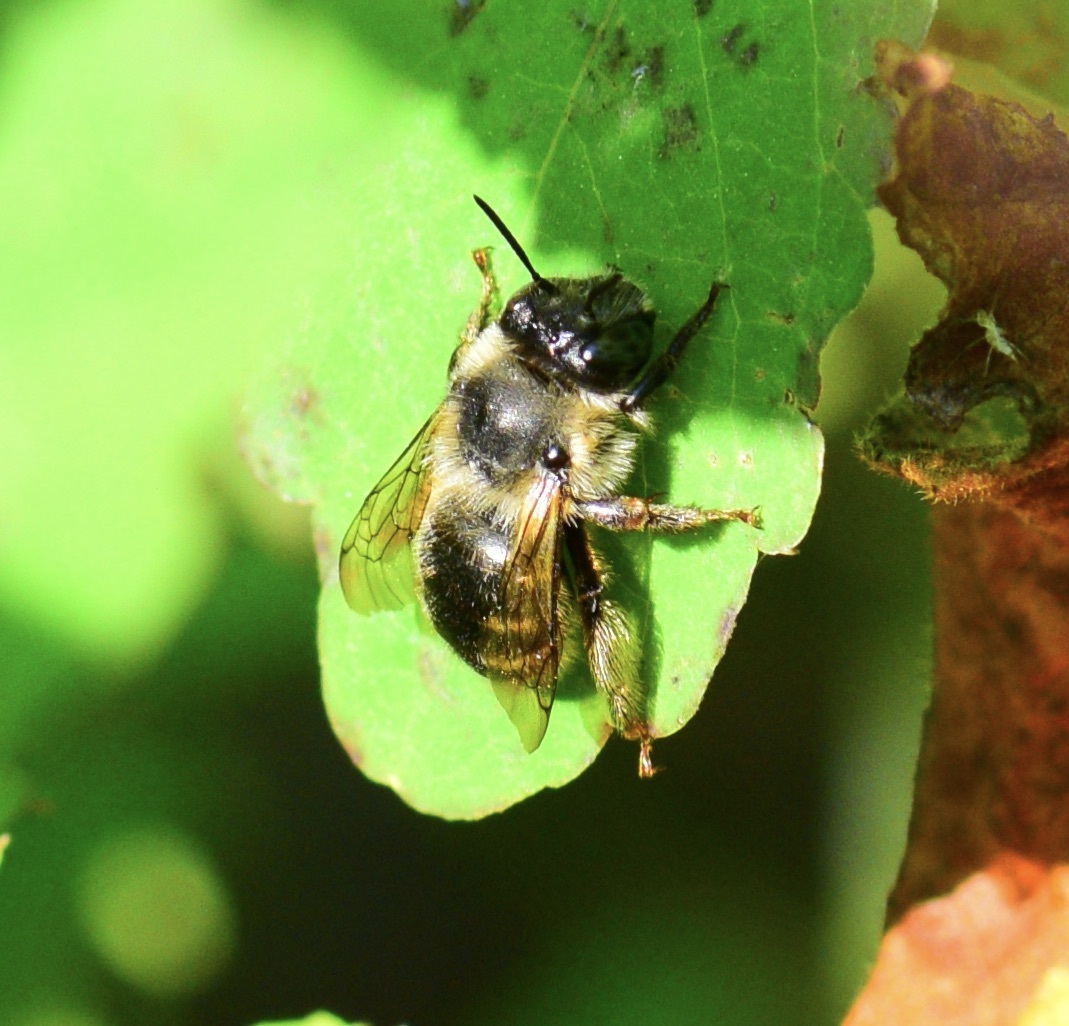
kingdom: Animalia
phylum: Arthropoda
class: Insecta
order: Hymenoptera
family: Apidae
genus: Anthophora
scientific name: Anthophora terminalis
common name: Orange-tipped wood-digger bee
